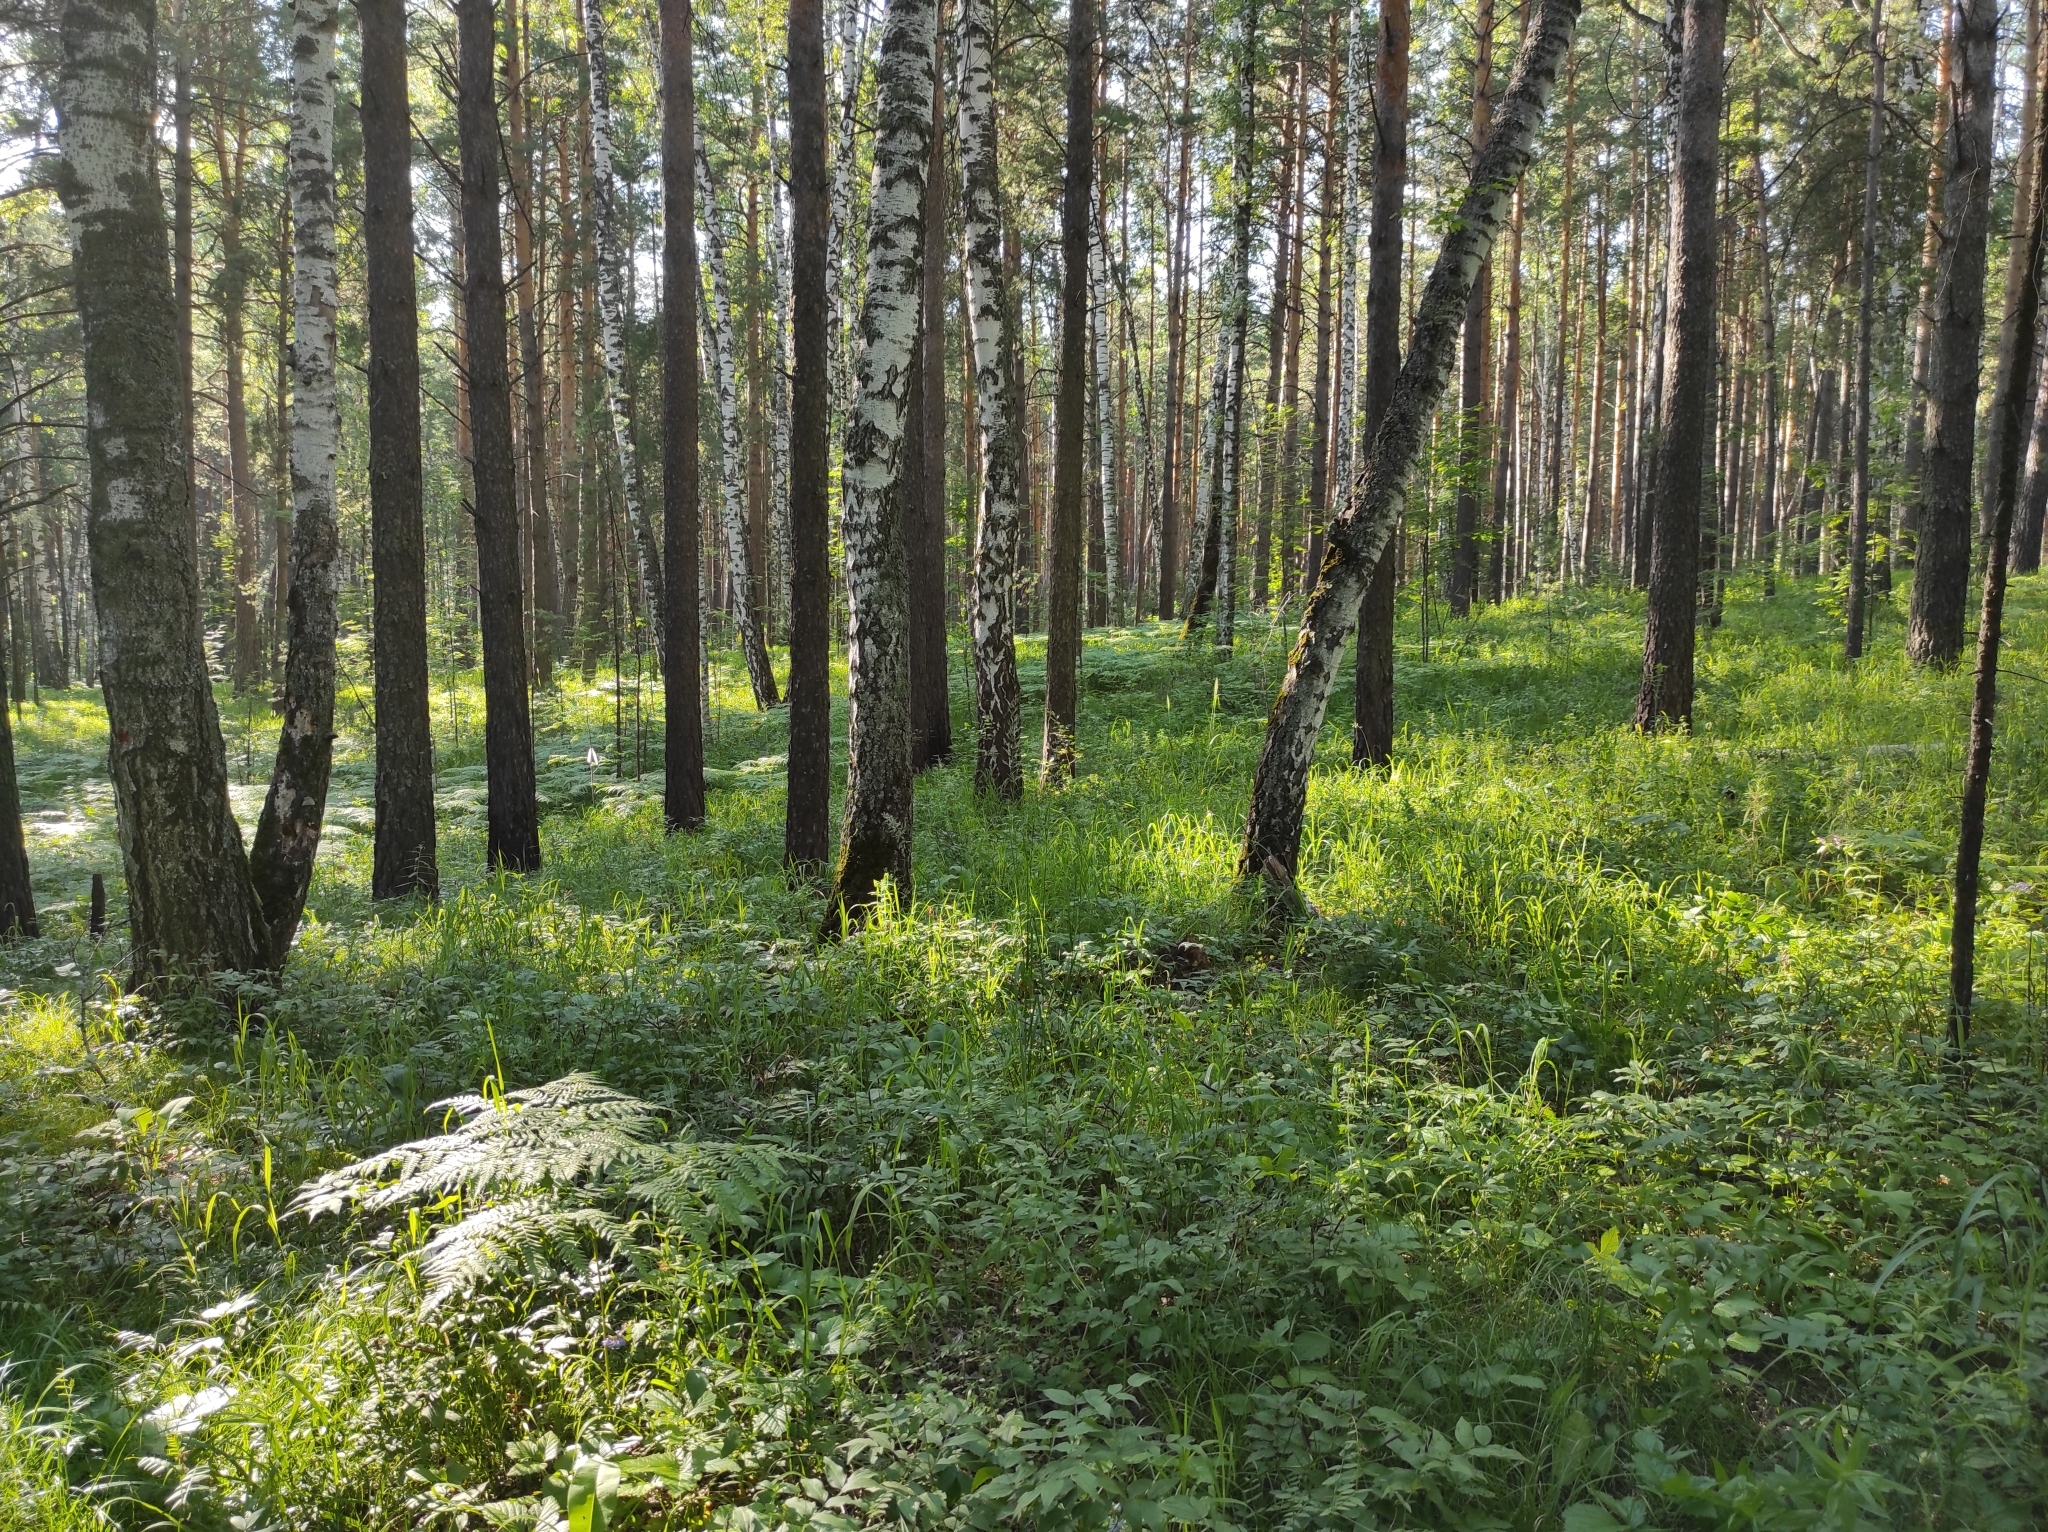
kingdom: Plantae
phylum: Tracheophyta
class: Pinopsida
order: Pinales
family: Pinaceae
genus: Pinus
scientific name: Pinus sylvestris
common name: Scots pine
